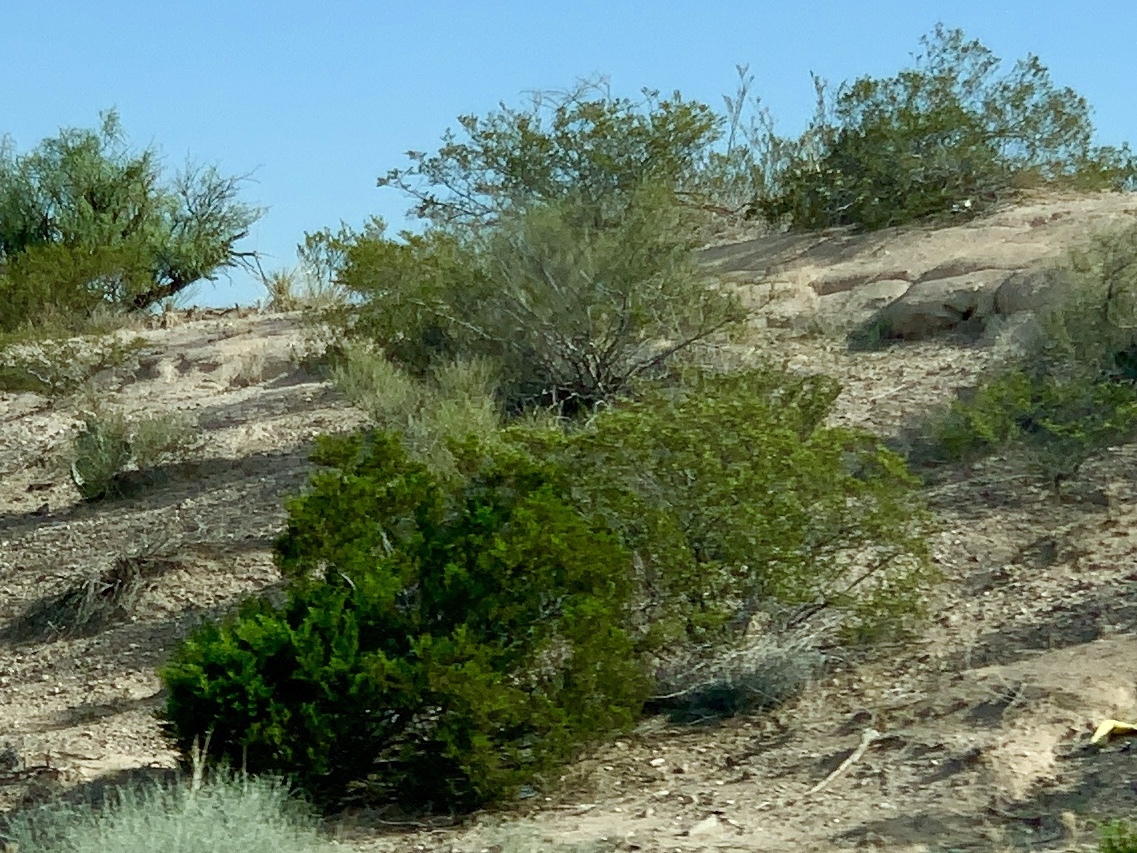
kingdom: Plantae
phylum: Tracheophyta
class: Magnoliopsida
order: Zygophyllales
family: Zygophyllaceae
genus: Larrea
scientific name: Larrea tridentata
